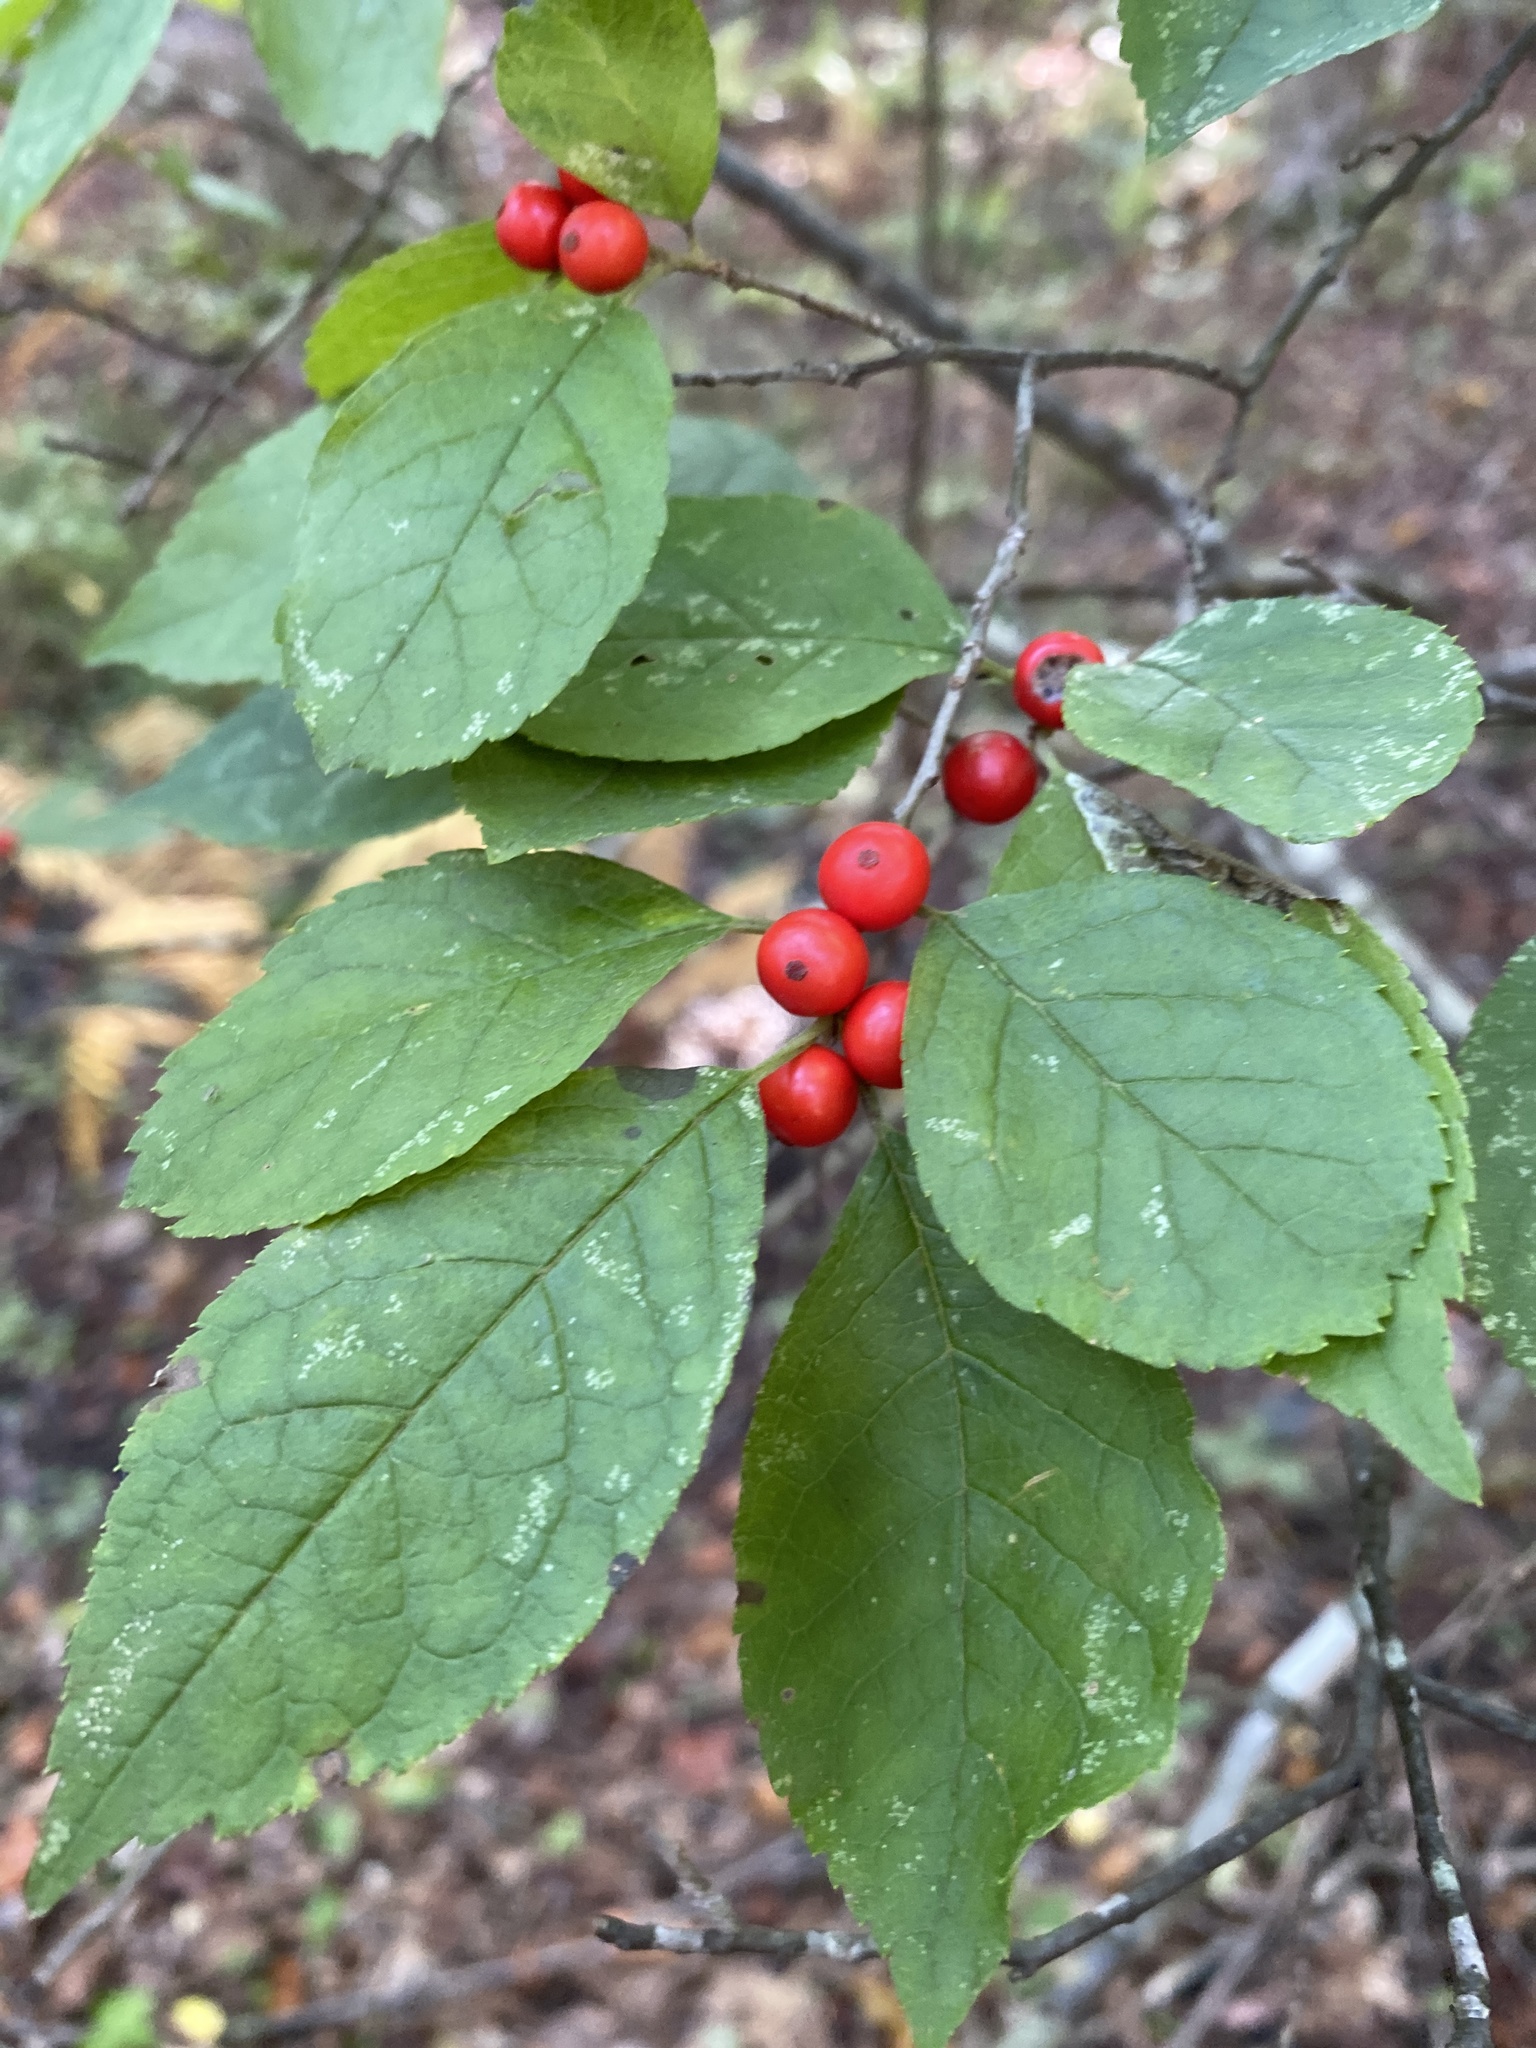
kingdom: Plantae
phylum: Tracheophyta
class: Magnoliopsida
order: Aquifoliales
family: Aquifoliaceae
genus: Ilex
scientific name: Ilex decidua
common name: Possum-haw
